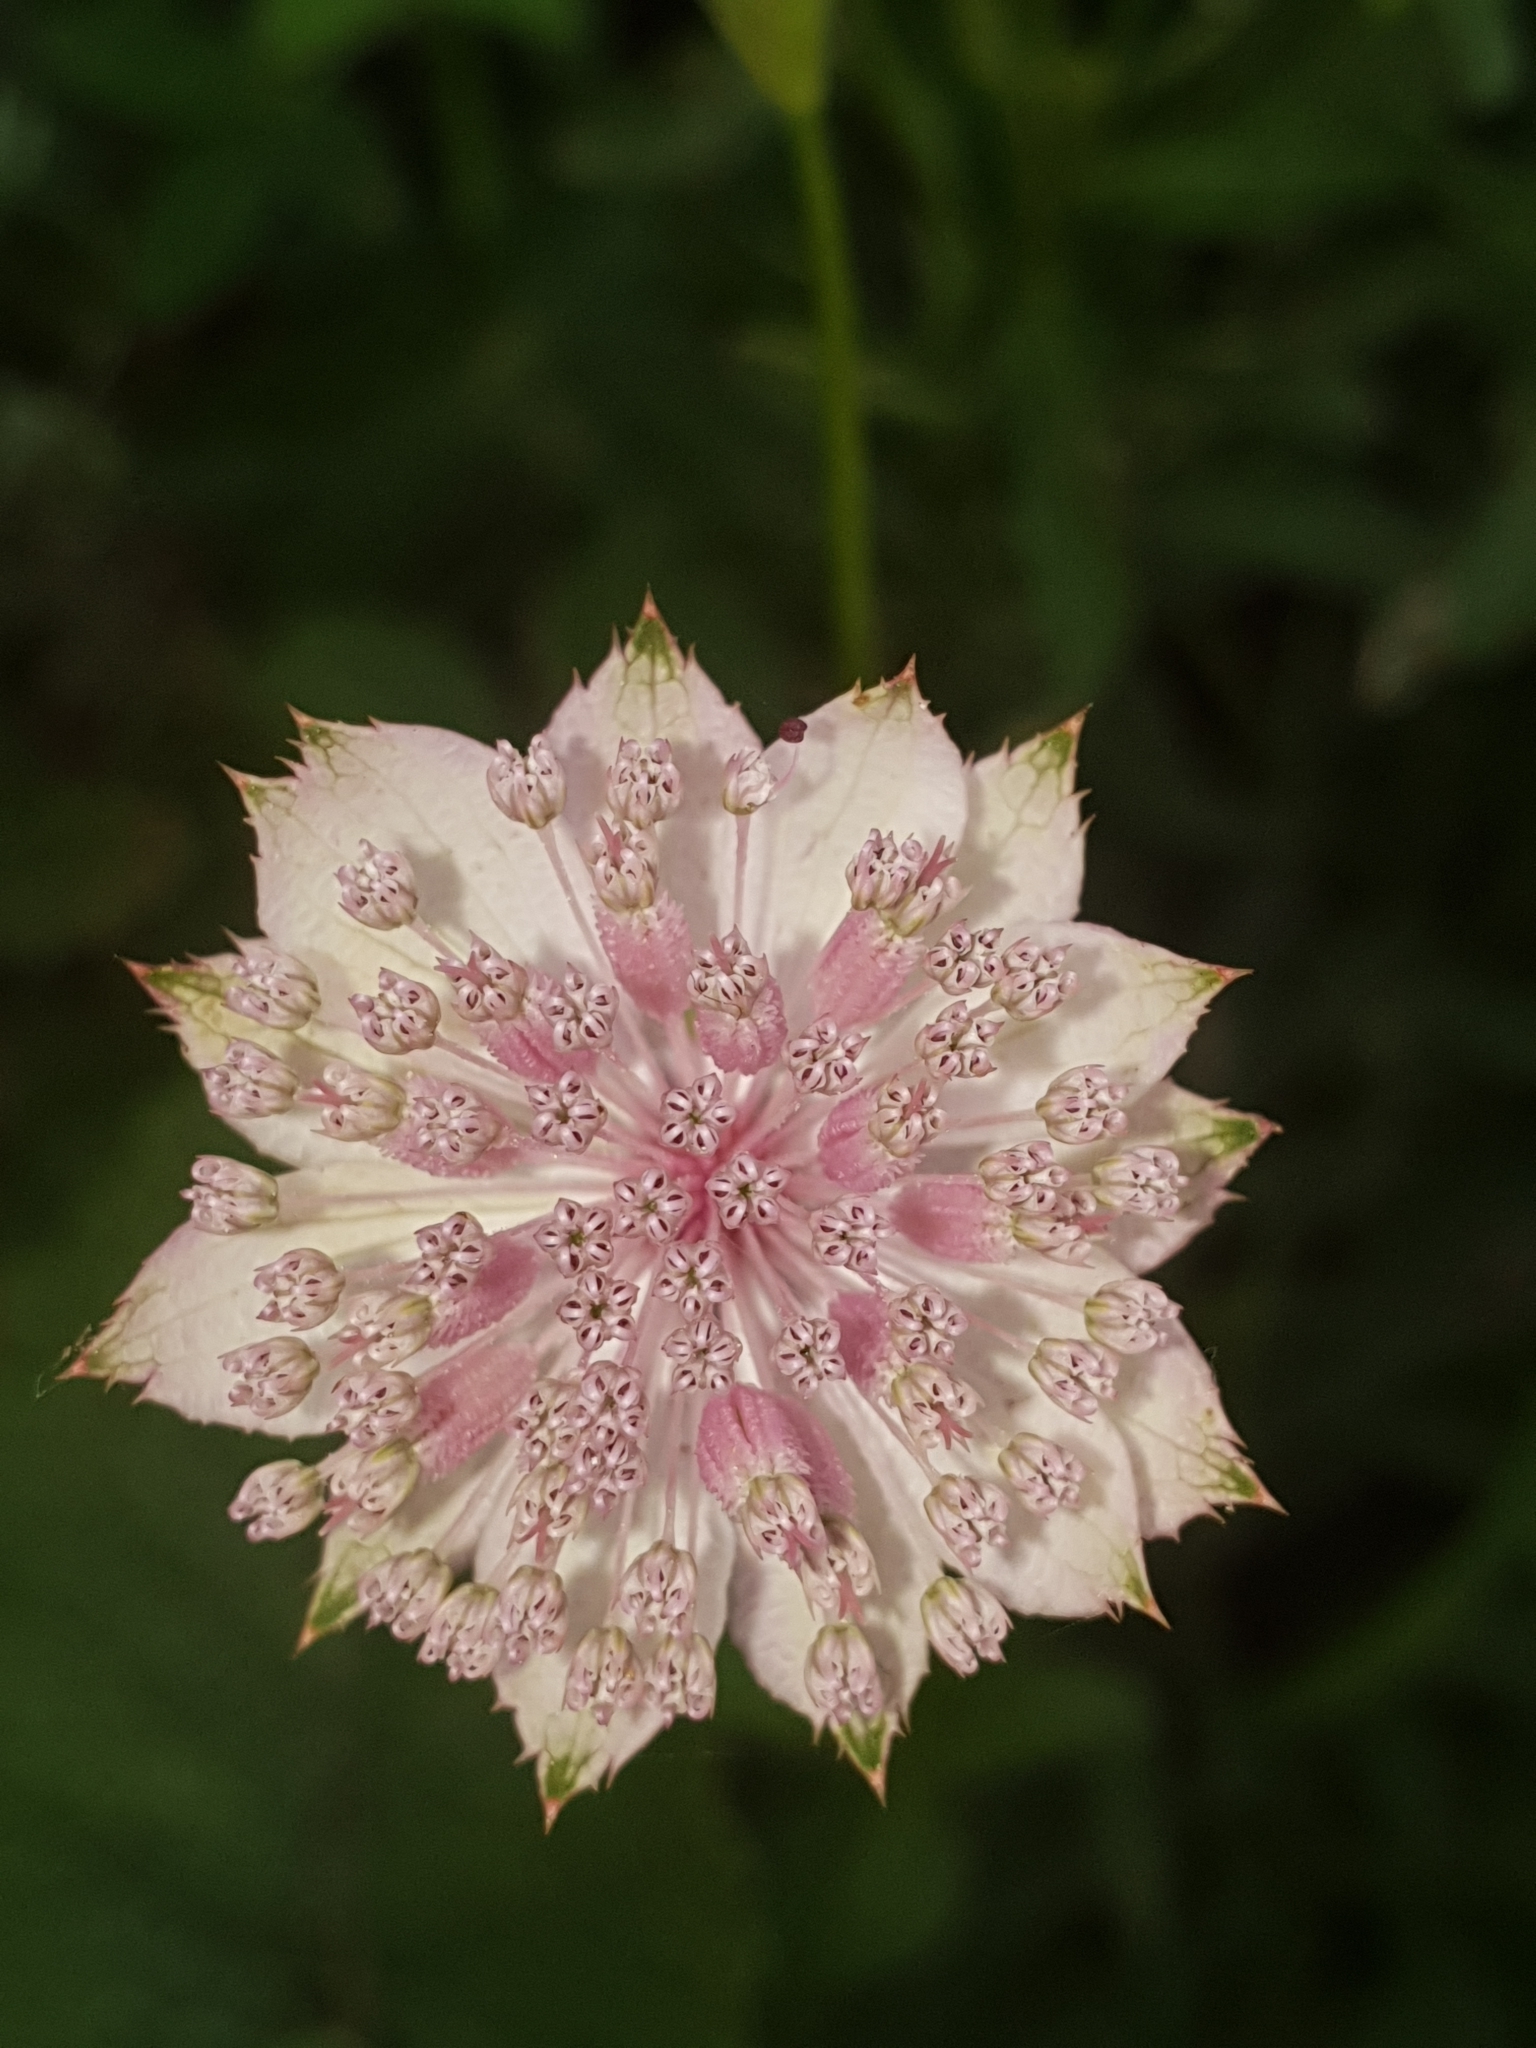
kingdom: Plantae
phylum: Tracheophyta
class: Magnoliopsida
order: Apiales
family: Apiaceae
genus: Astrantia
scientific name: Astrantia maxima
